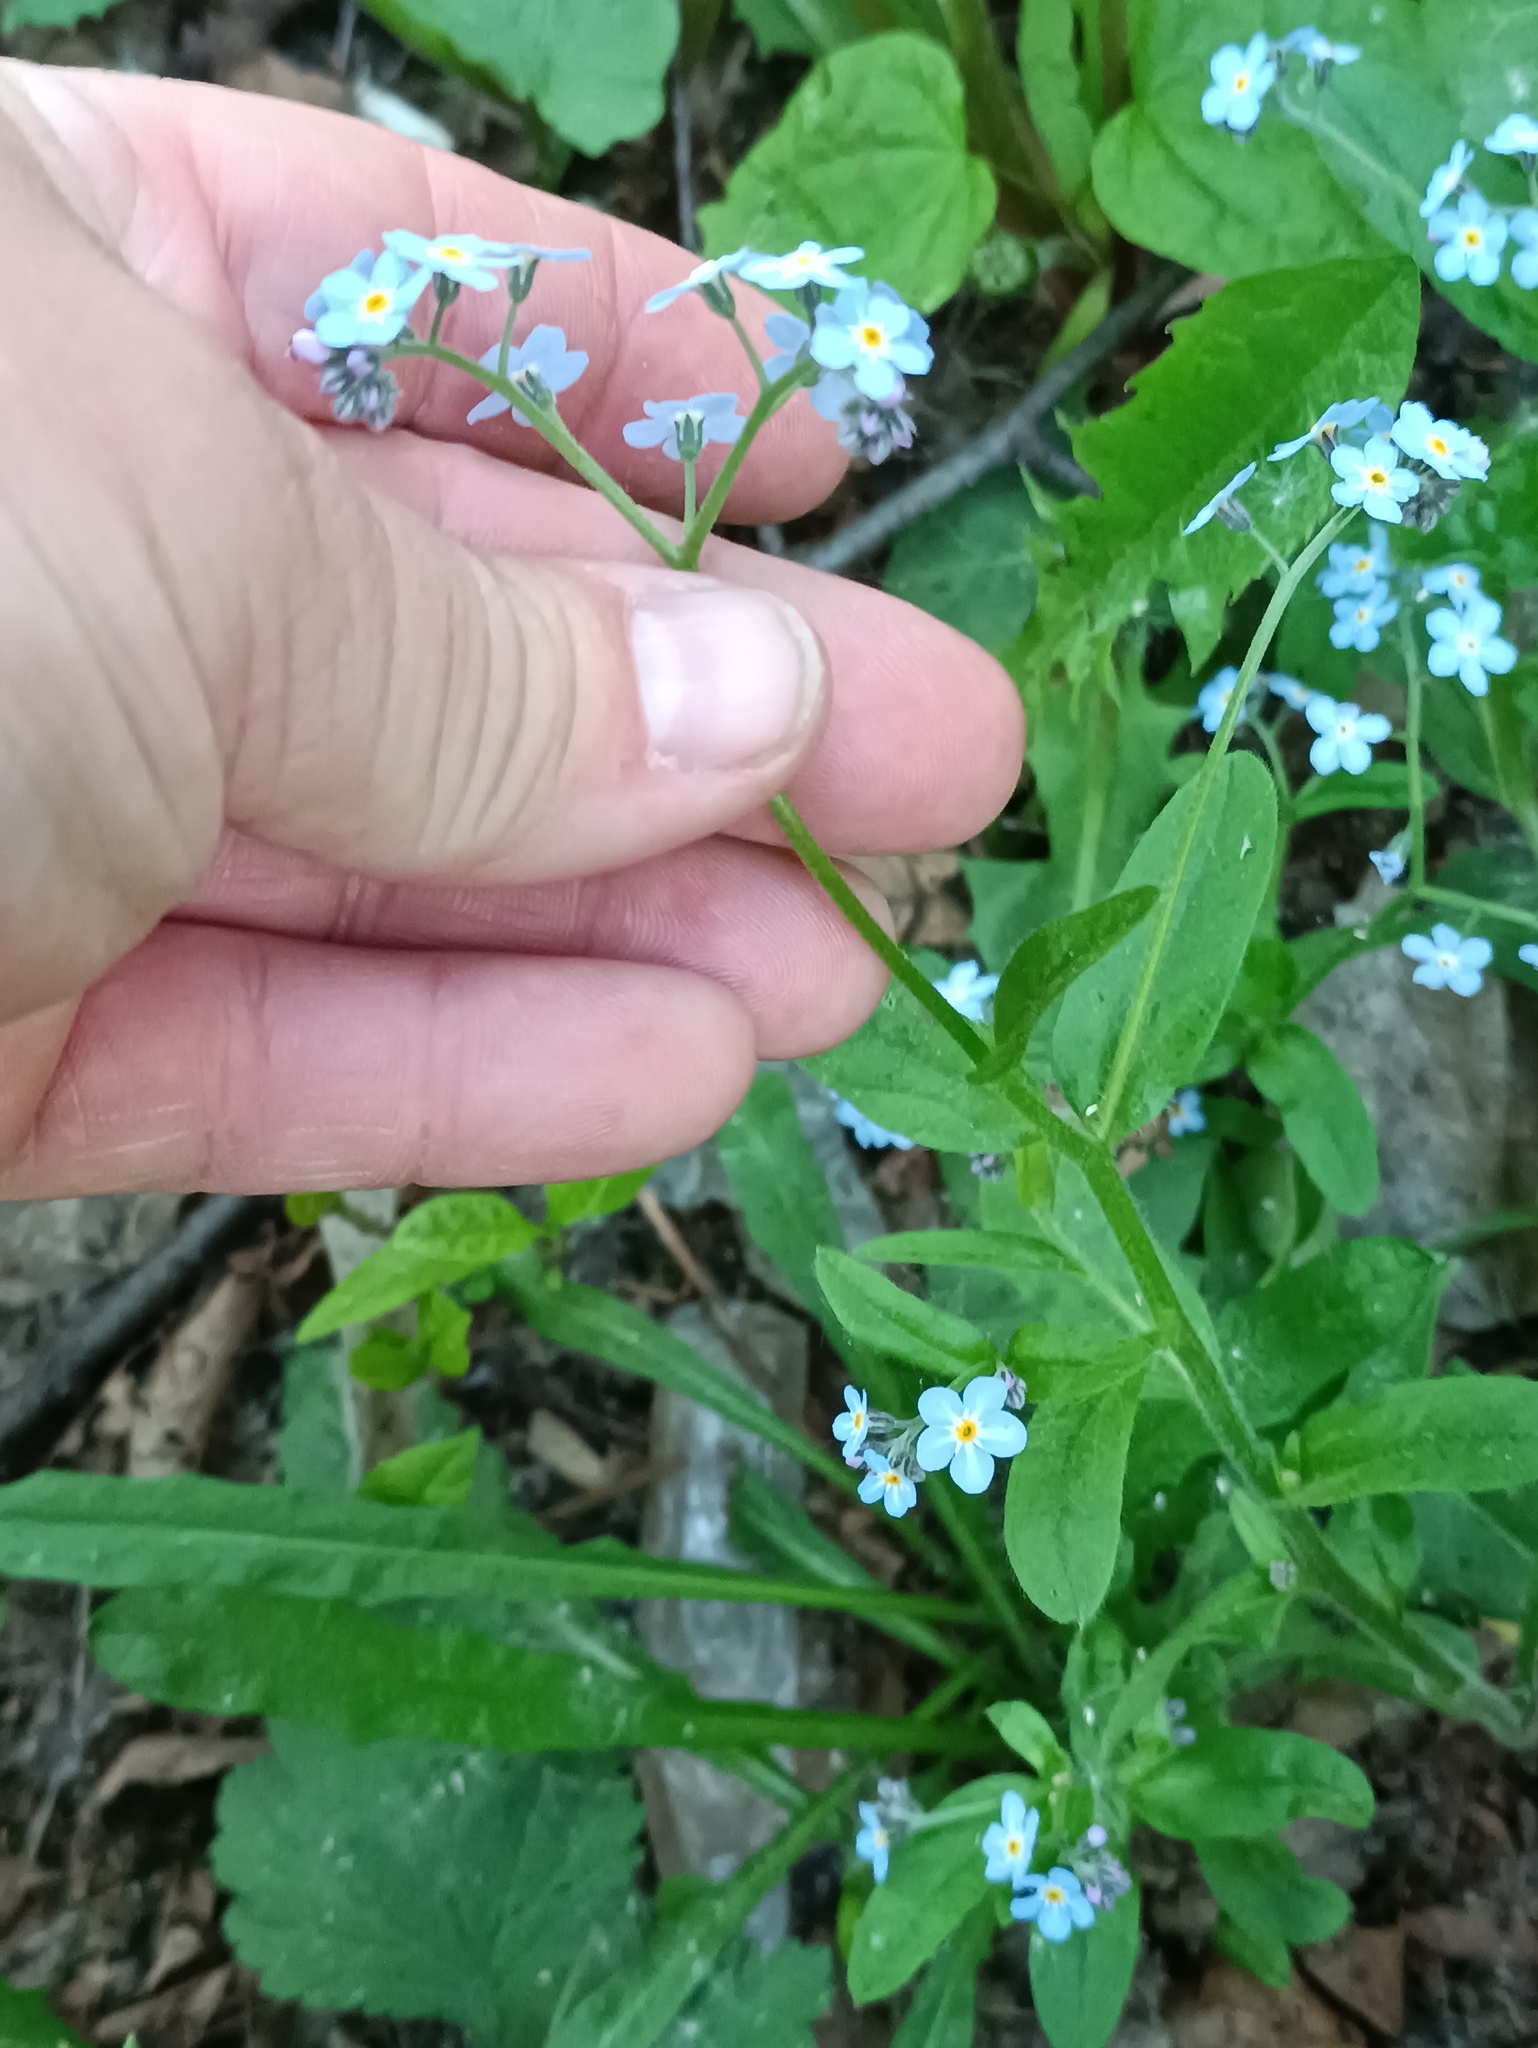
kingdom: Plantae
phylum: Tracheophyta
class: Magnoliopsida
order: Boraginales
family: Boraginaceae
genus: Myosotis
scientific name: Myosotis sylvatica
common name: Wood forget-me-not
